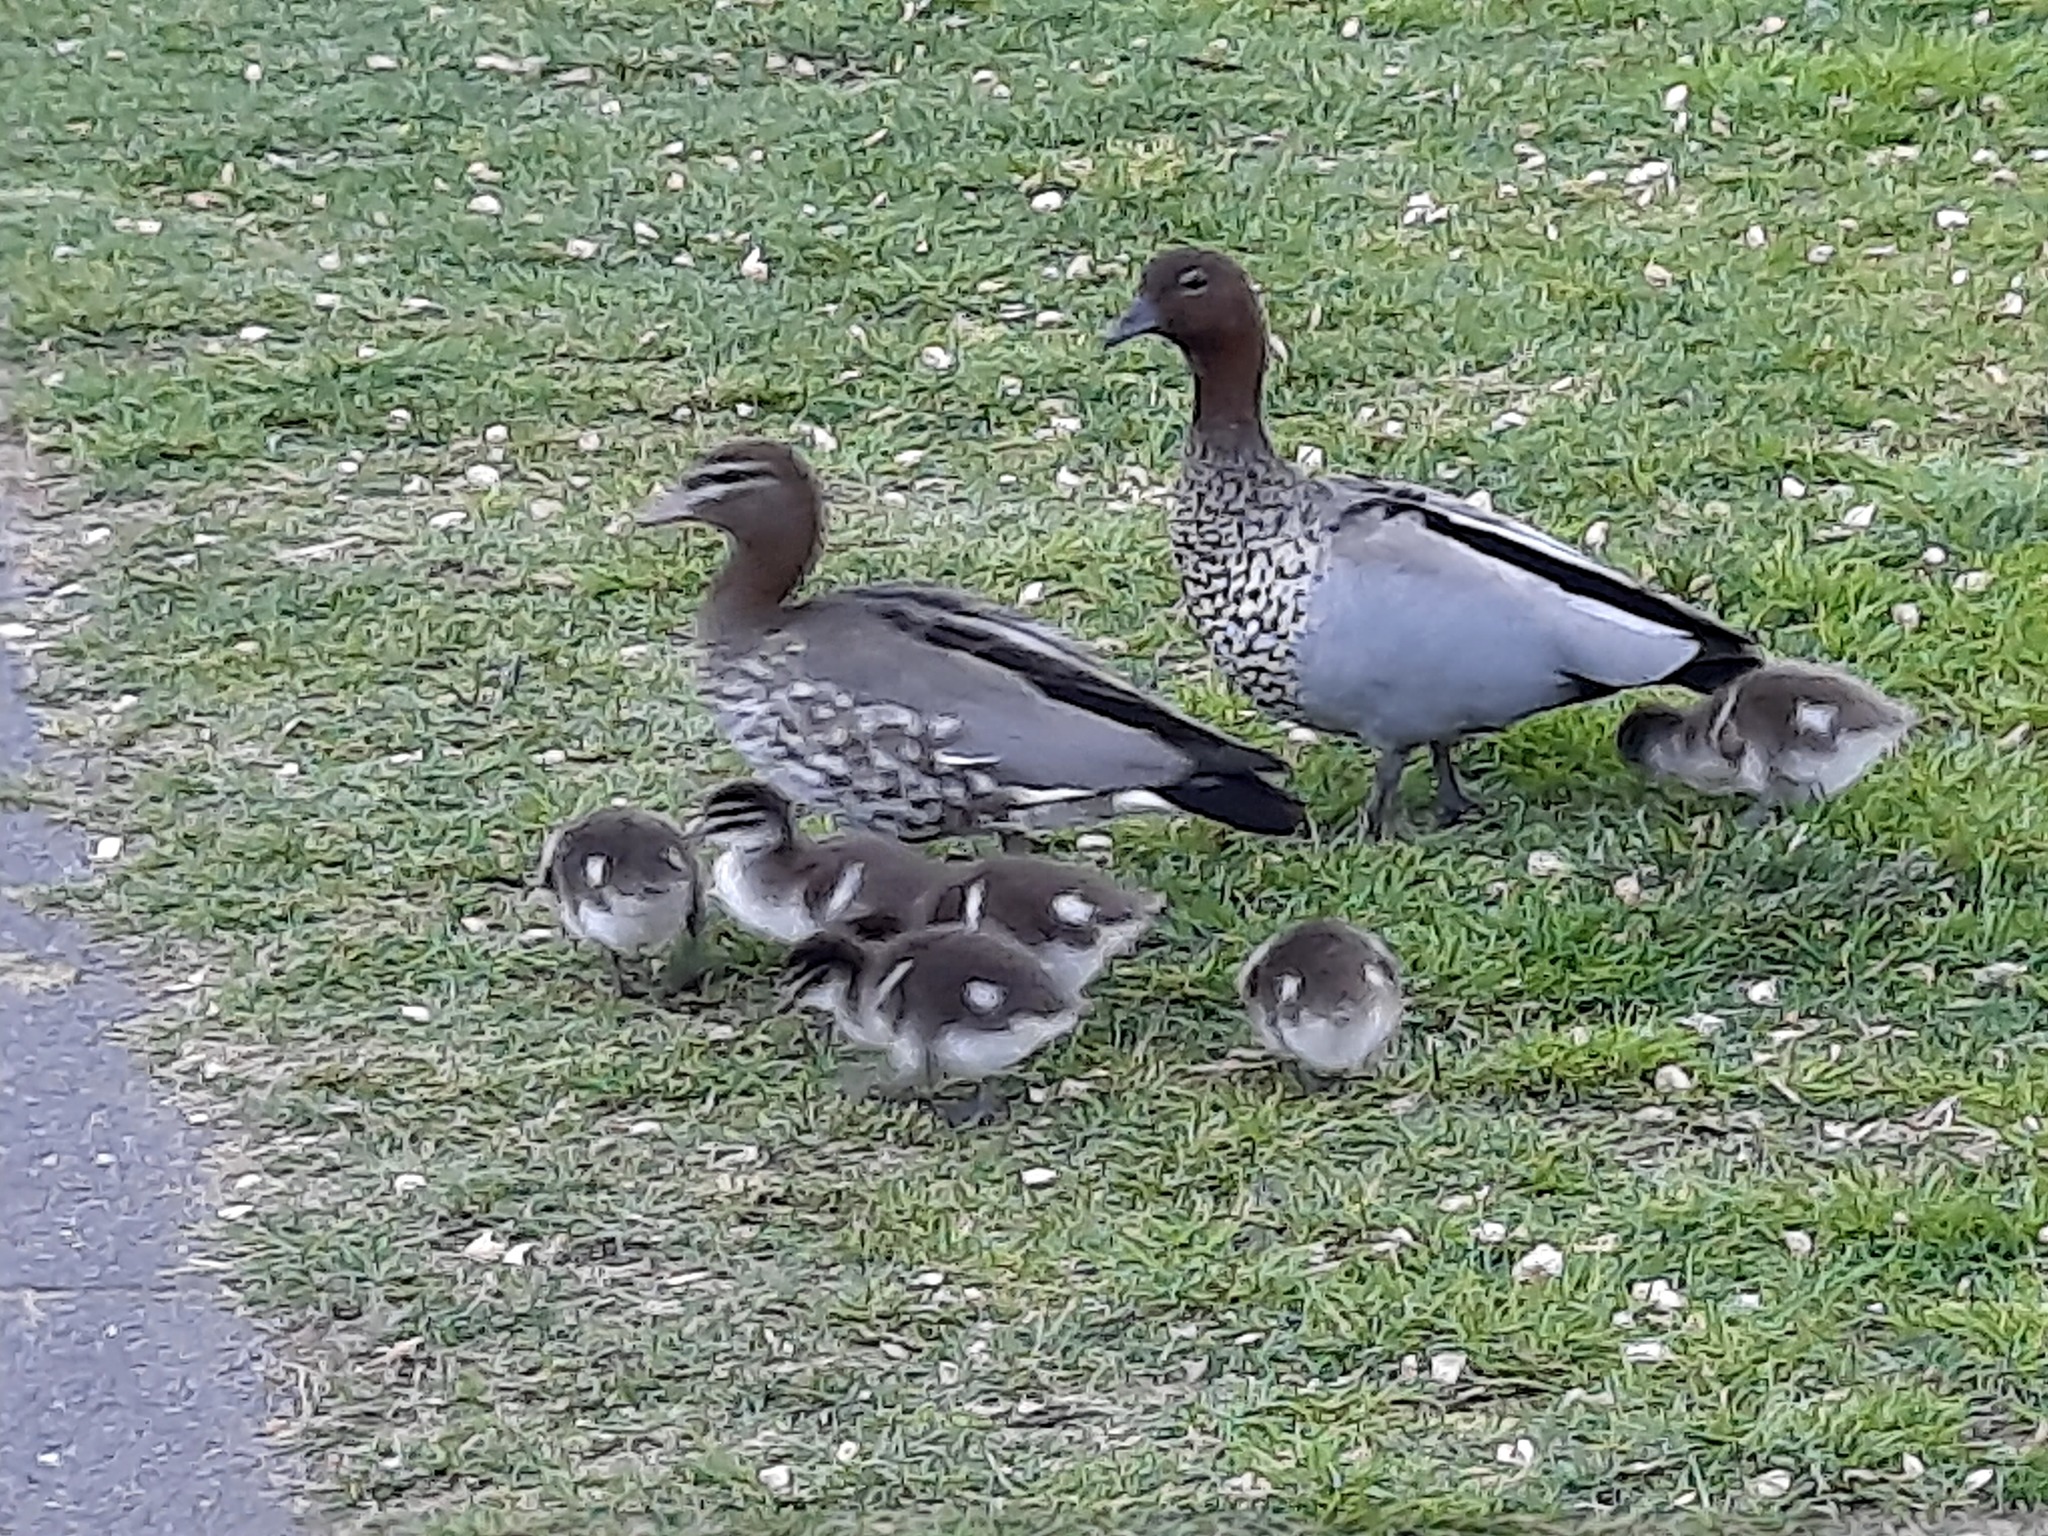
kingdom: Animalia
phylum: Chordata
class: Aves
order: Anseriformes
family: Anatidae
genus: Chenonetta
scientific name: Chenonetta jubata
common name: Maned duck
